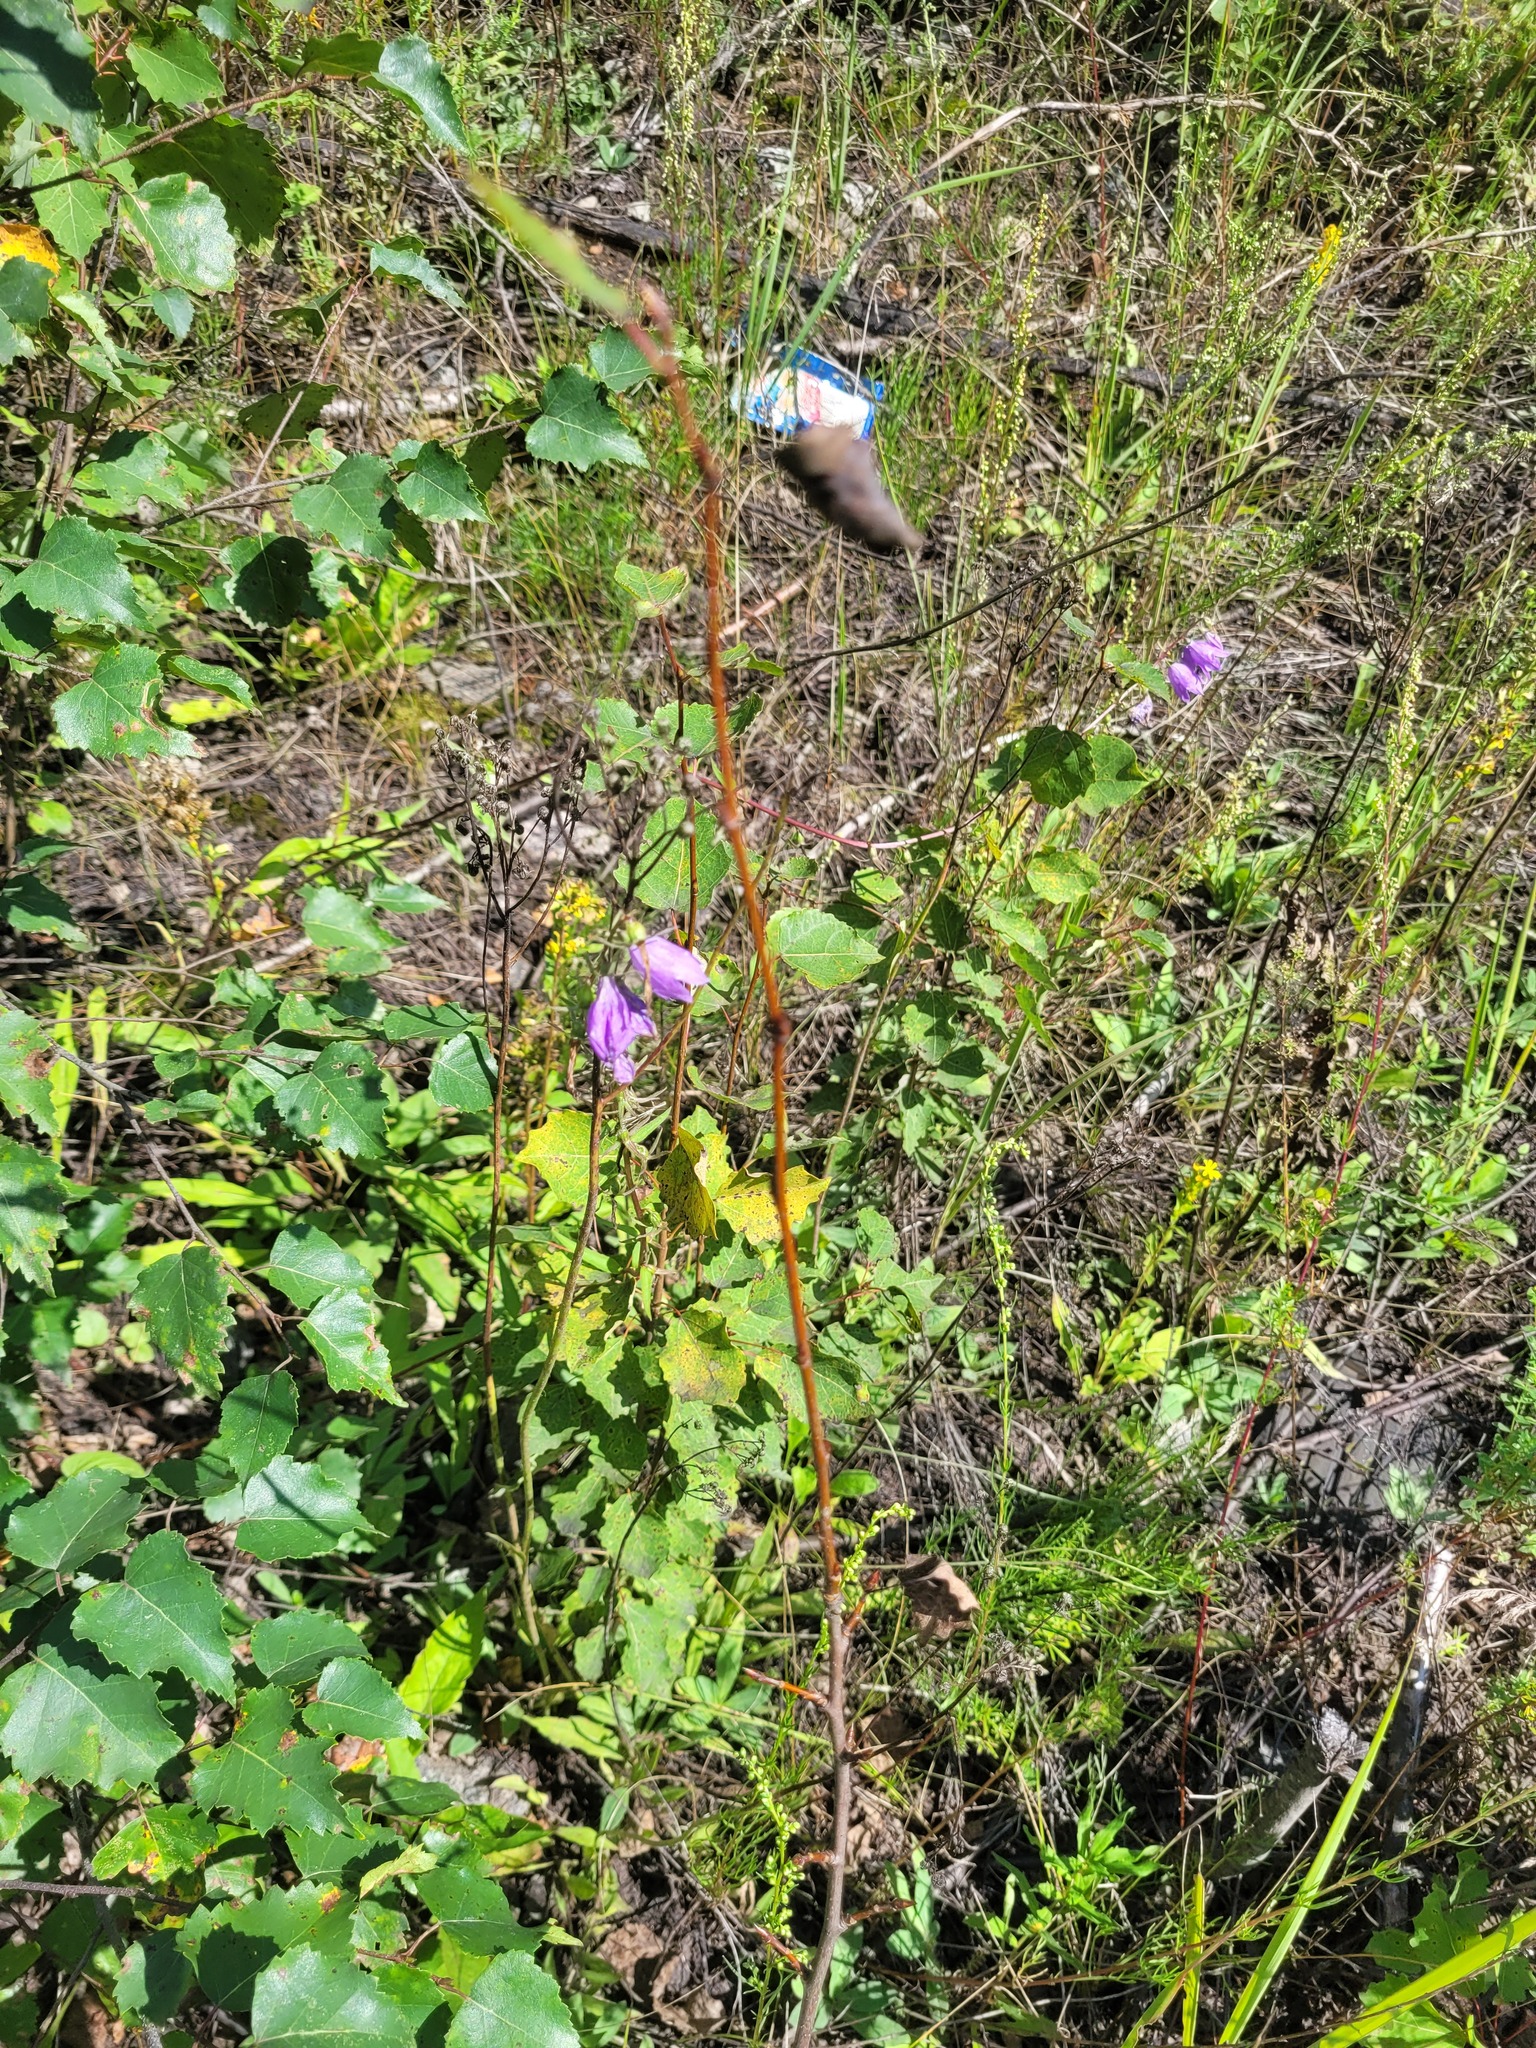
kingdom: Plantae
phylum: Tracheophyta
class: Magnoliopsida
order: Asterales
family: Campanulaceae
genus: Campanula
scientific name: Campanula rapunculoides
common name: Creeping bellflower
